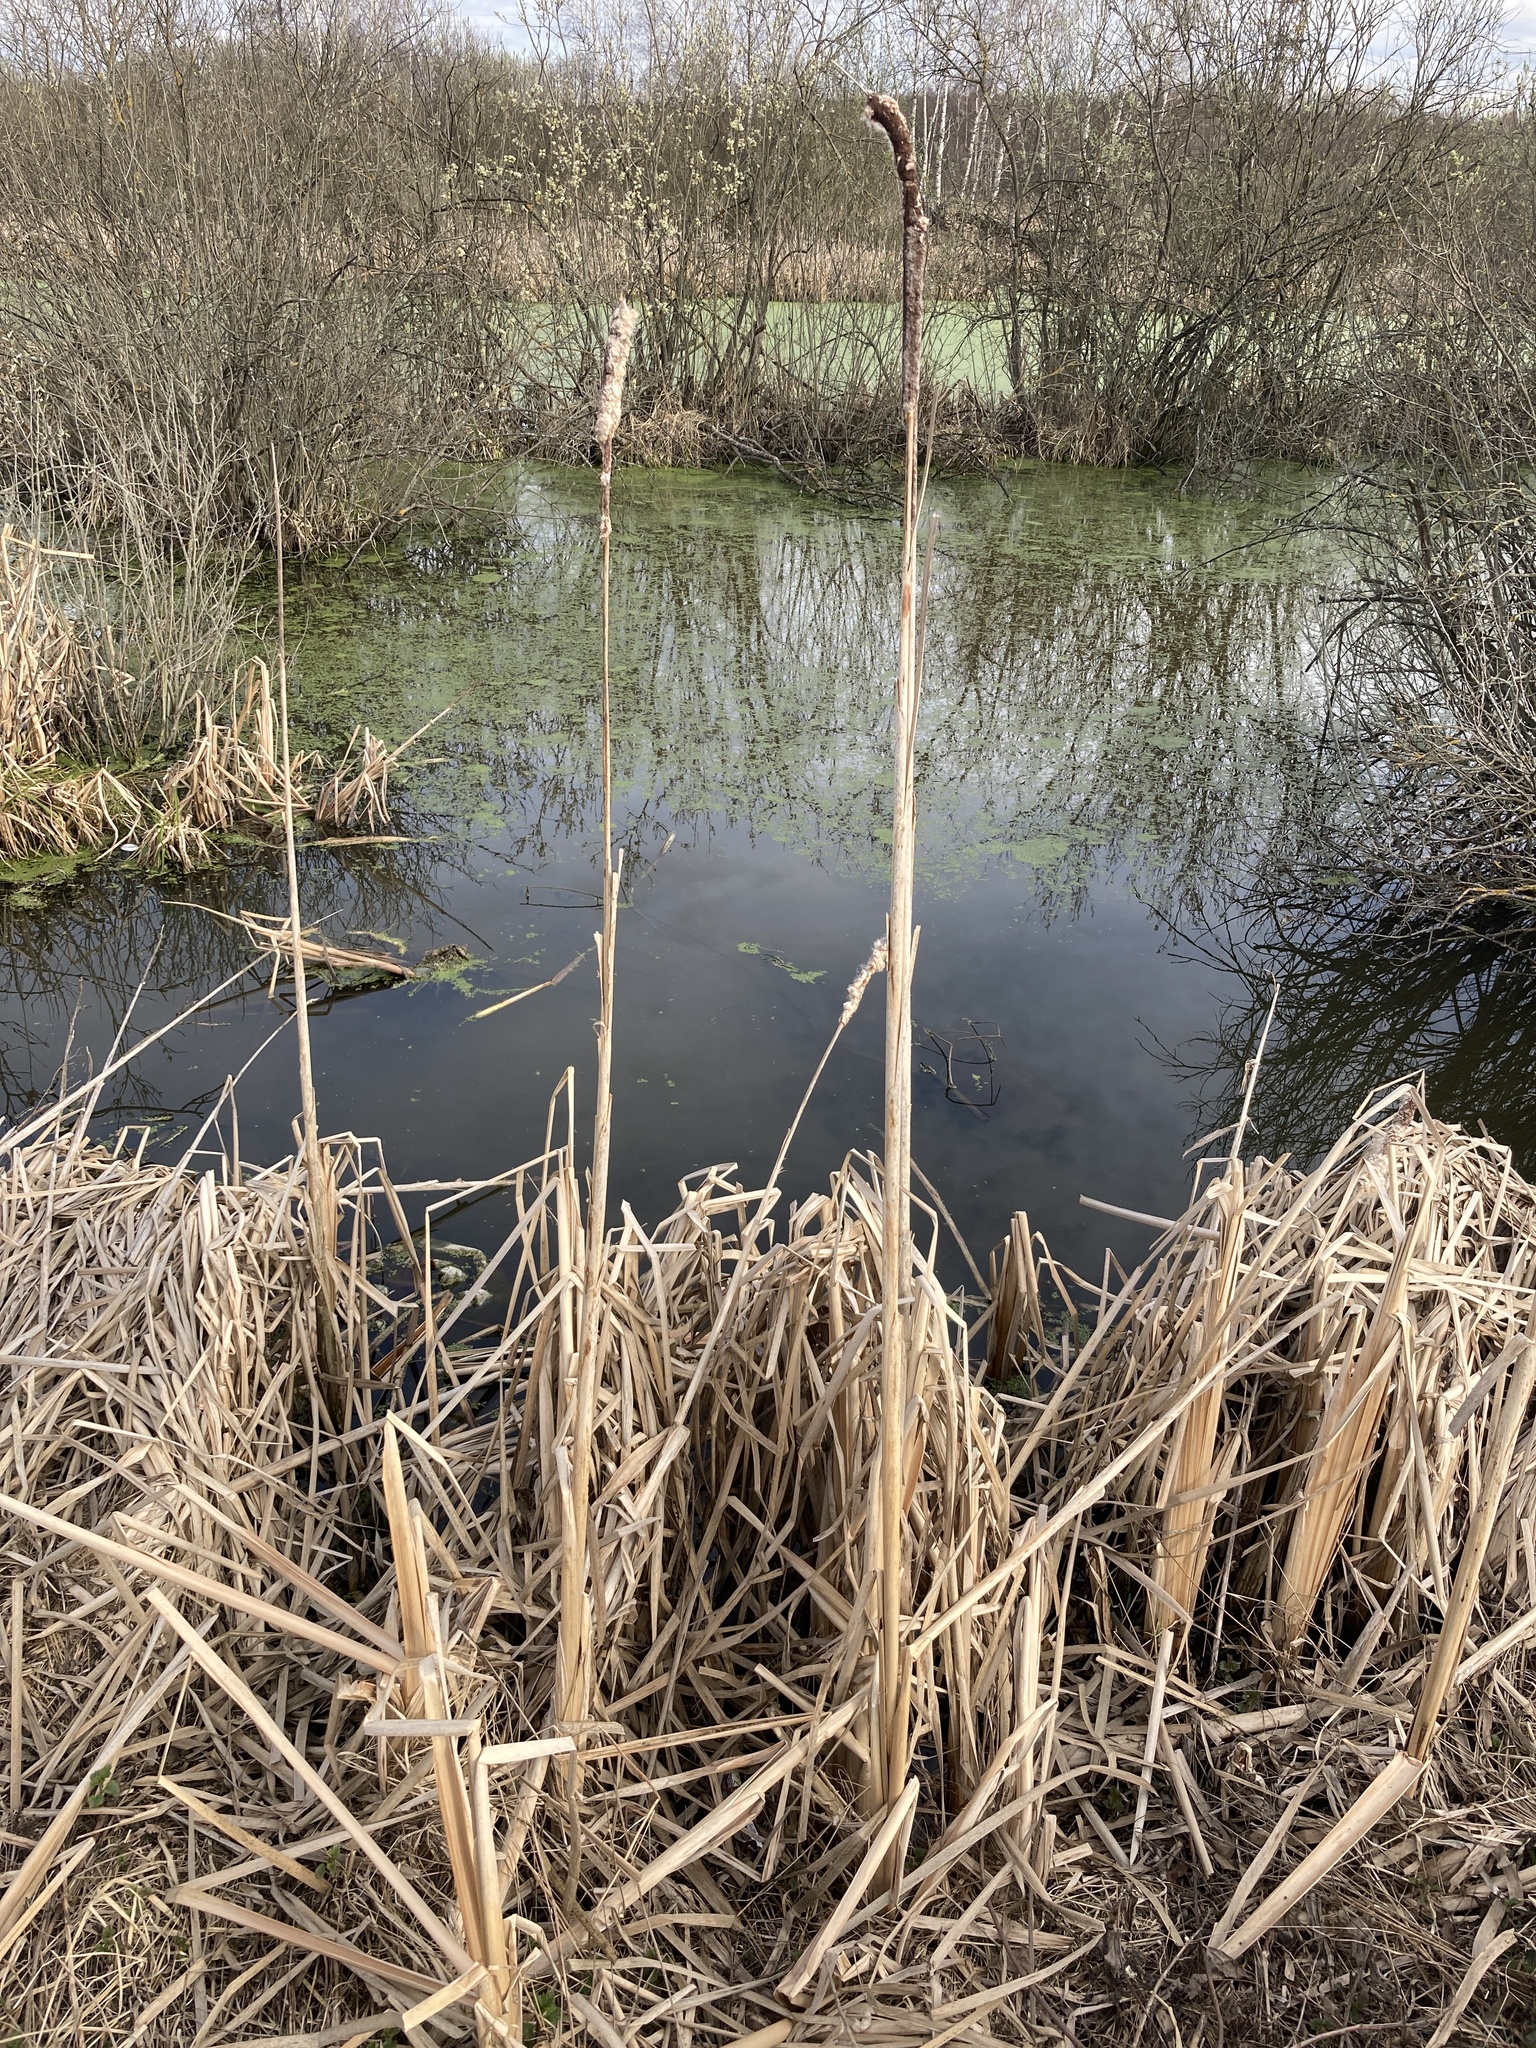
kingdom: Plantae
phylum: Tracheophyta
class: Liliopsida
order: Poales
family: Typhaceae
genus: Typha
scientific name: Typha latifolia
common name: Broadleaf cattail
